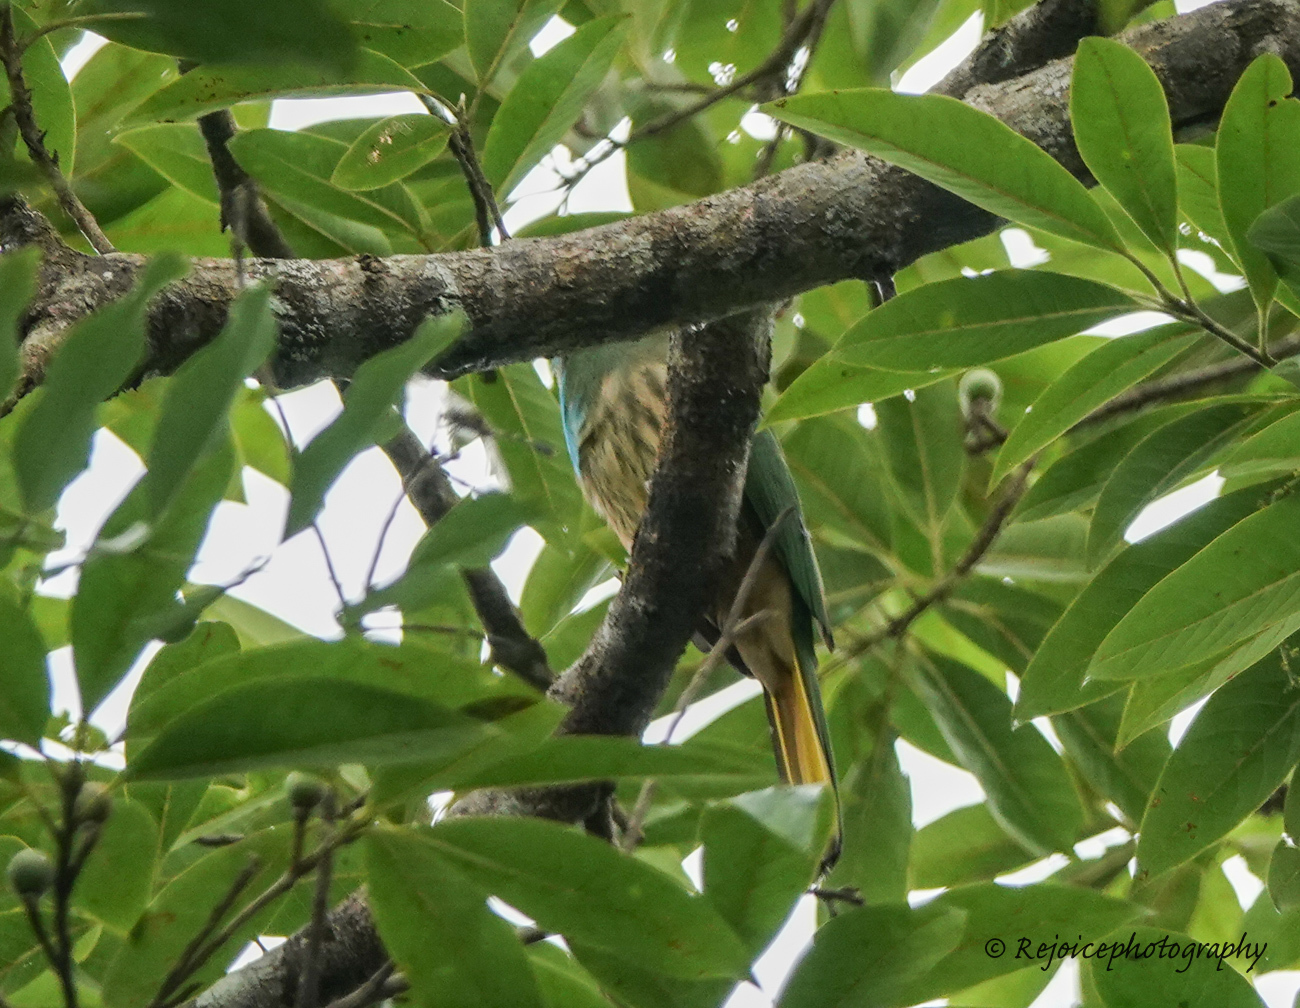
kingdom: Animalia
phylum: Chordata
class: Aves
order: Coraciiformes
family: Meropidae
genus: Nyctyornis
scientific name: Nyctyornis athertoni
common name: Blue-bearded bee-eater
